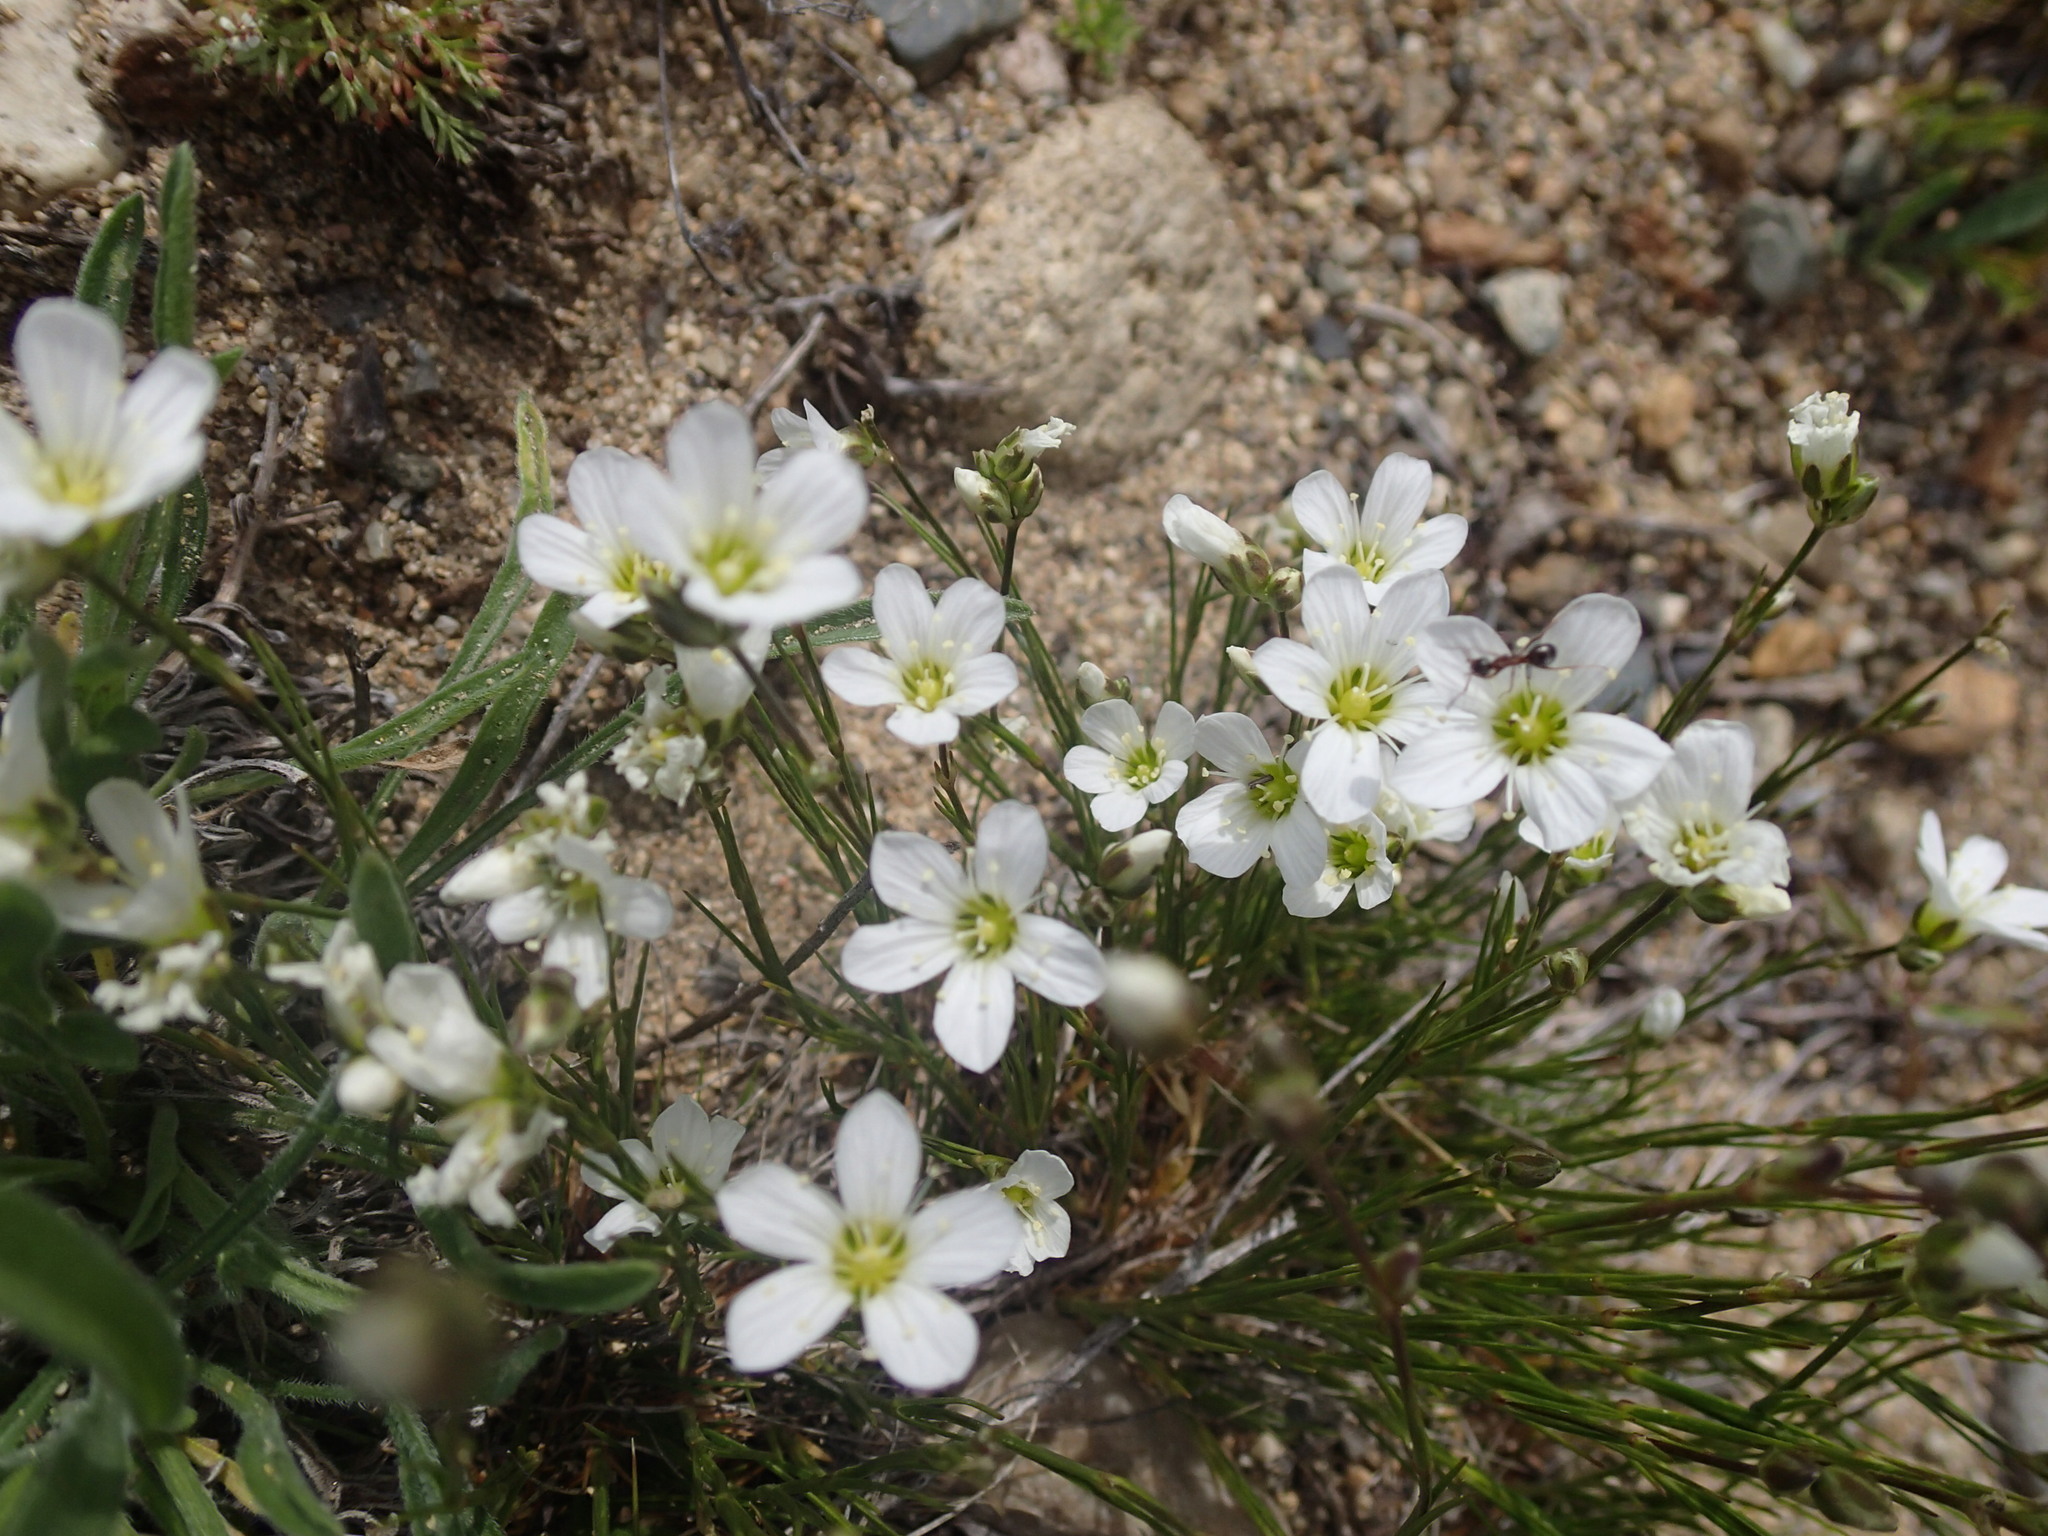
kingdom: Plantae
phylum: Tracheophyta
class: Magnoliopsida
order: Caryophyllales
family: Caryophyllaceae
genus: Eremogone
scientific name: Eremogone capillaris
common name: Slender mountain sandwort
